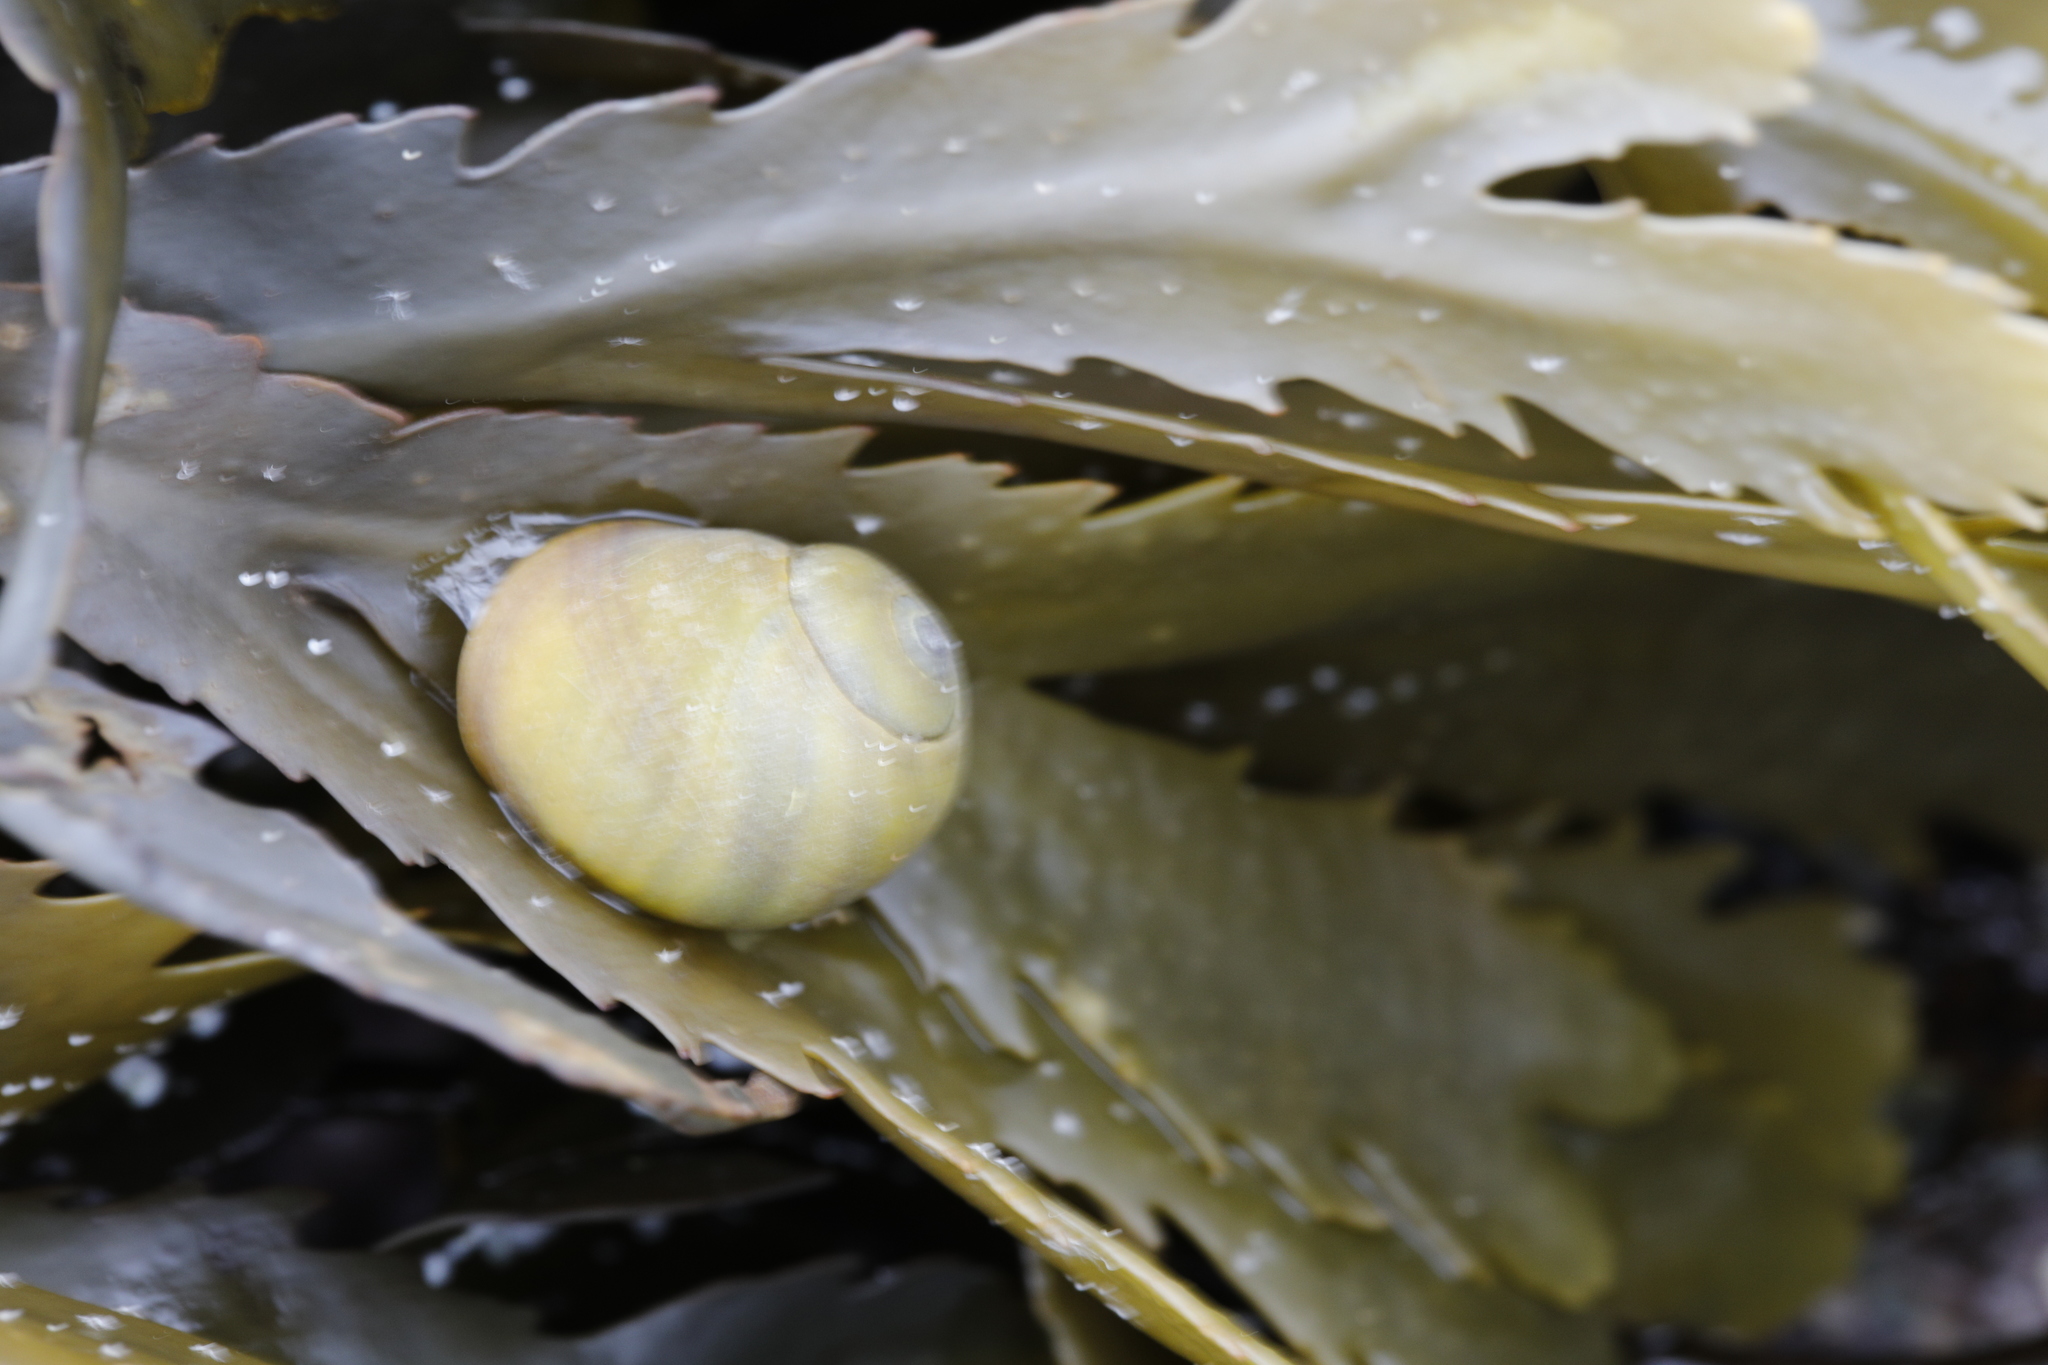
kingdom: Animalia
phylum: Mollusca
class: Gastropoda
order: Littorinimorpha
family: Littorinidae
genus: Littorina
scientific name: Littorina obtusata
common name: Flat periwinkle
